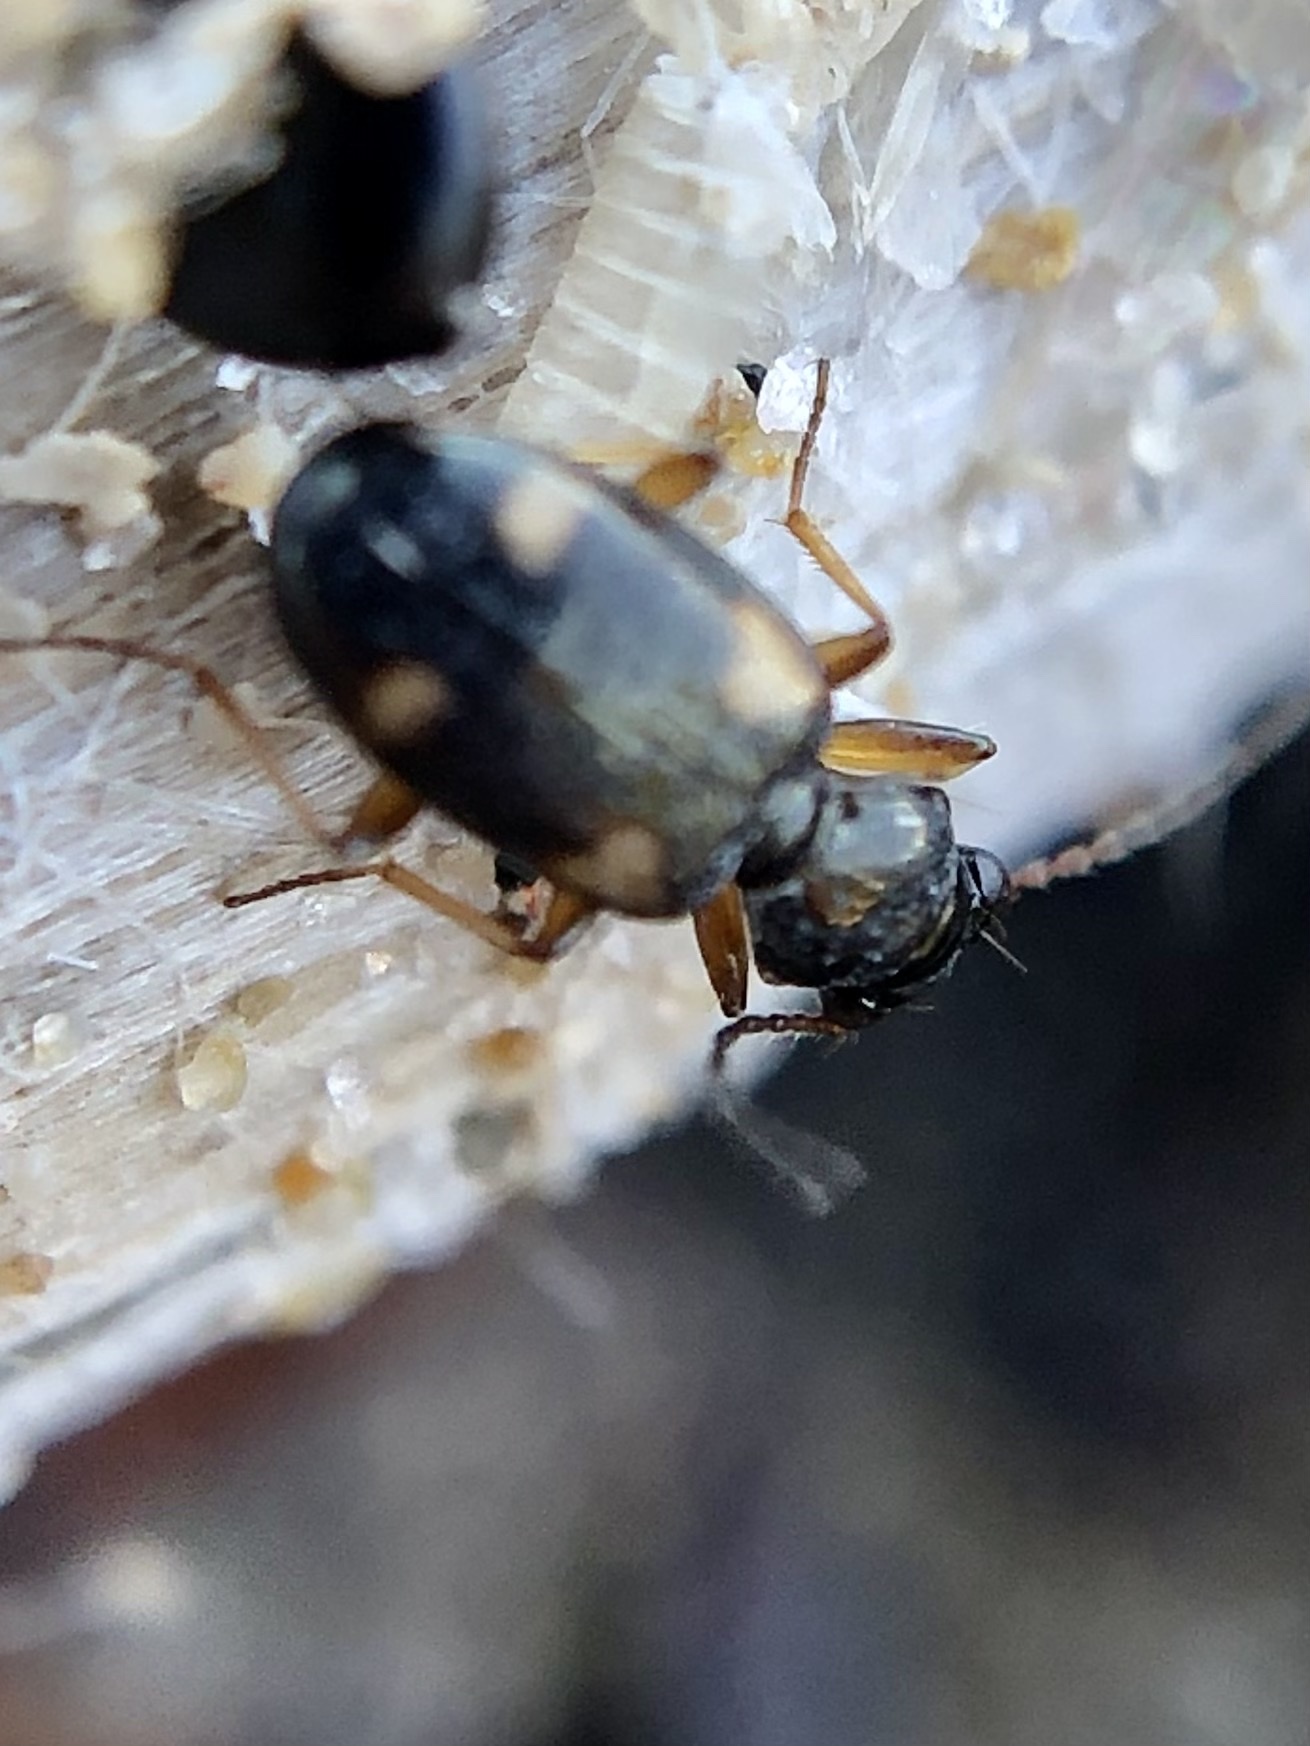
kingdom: Animalia
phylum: Arthropoda
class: Insecta
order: Coleoptera
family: Carabidae
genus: Bembidion
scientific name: Bembidion quadrimaculatum
